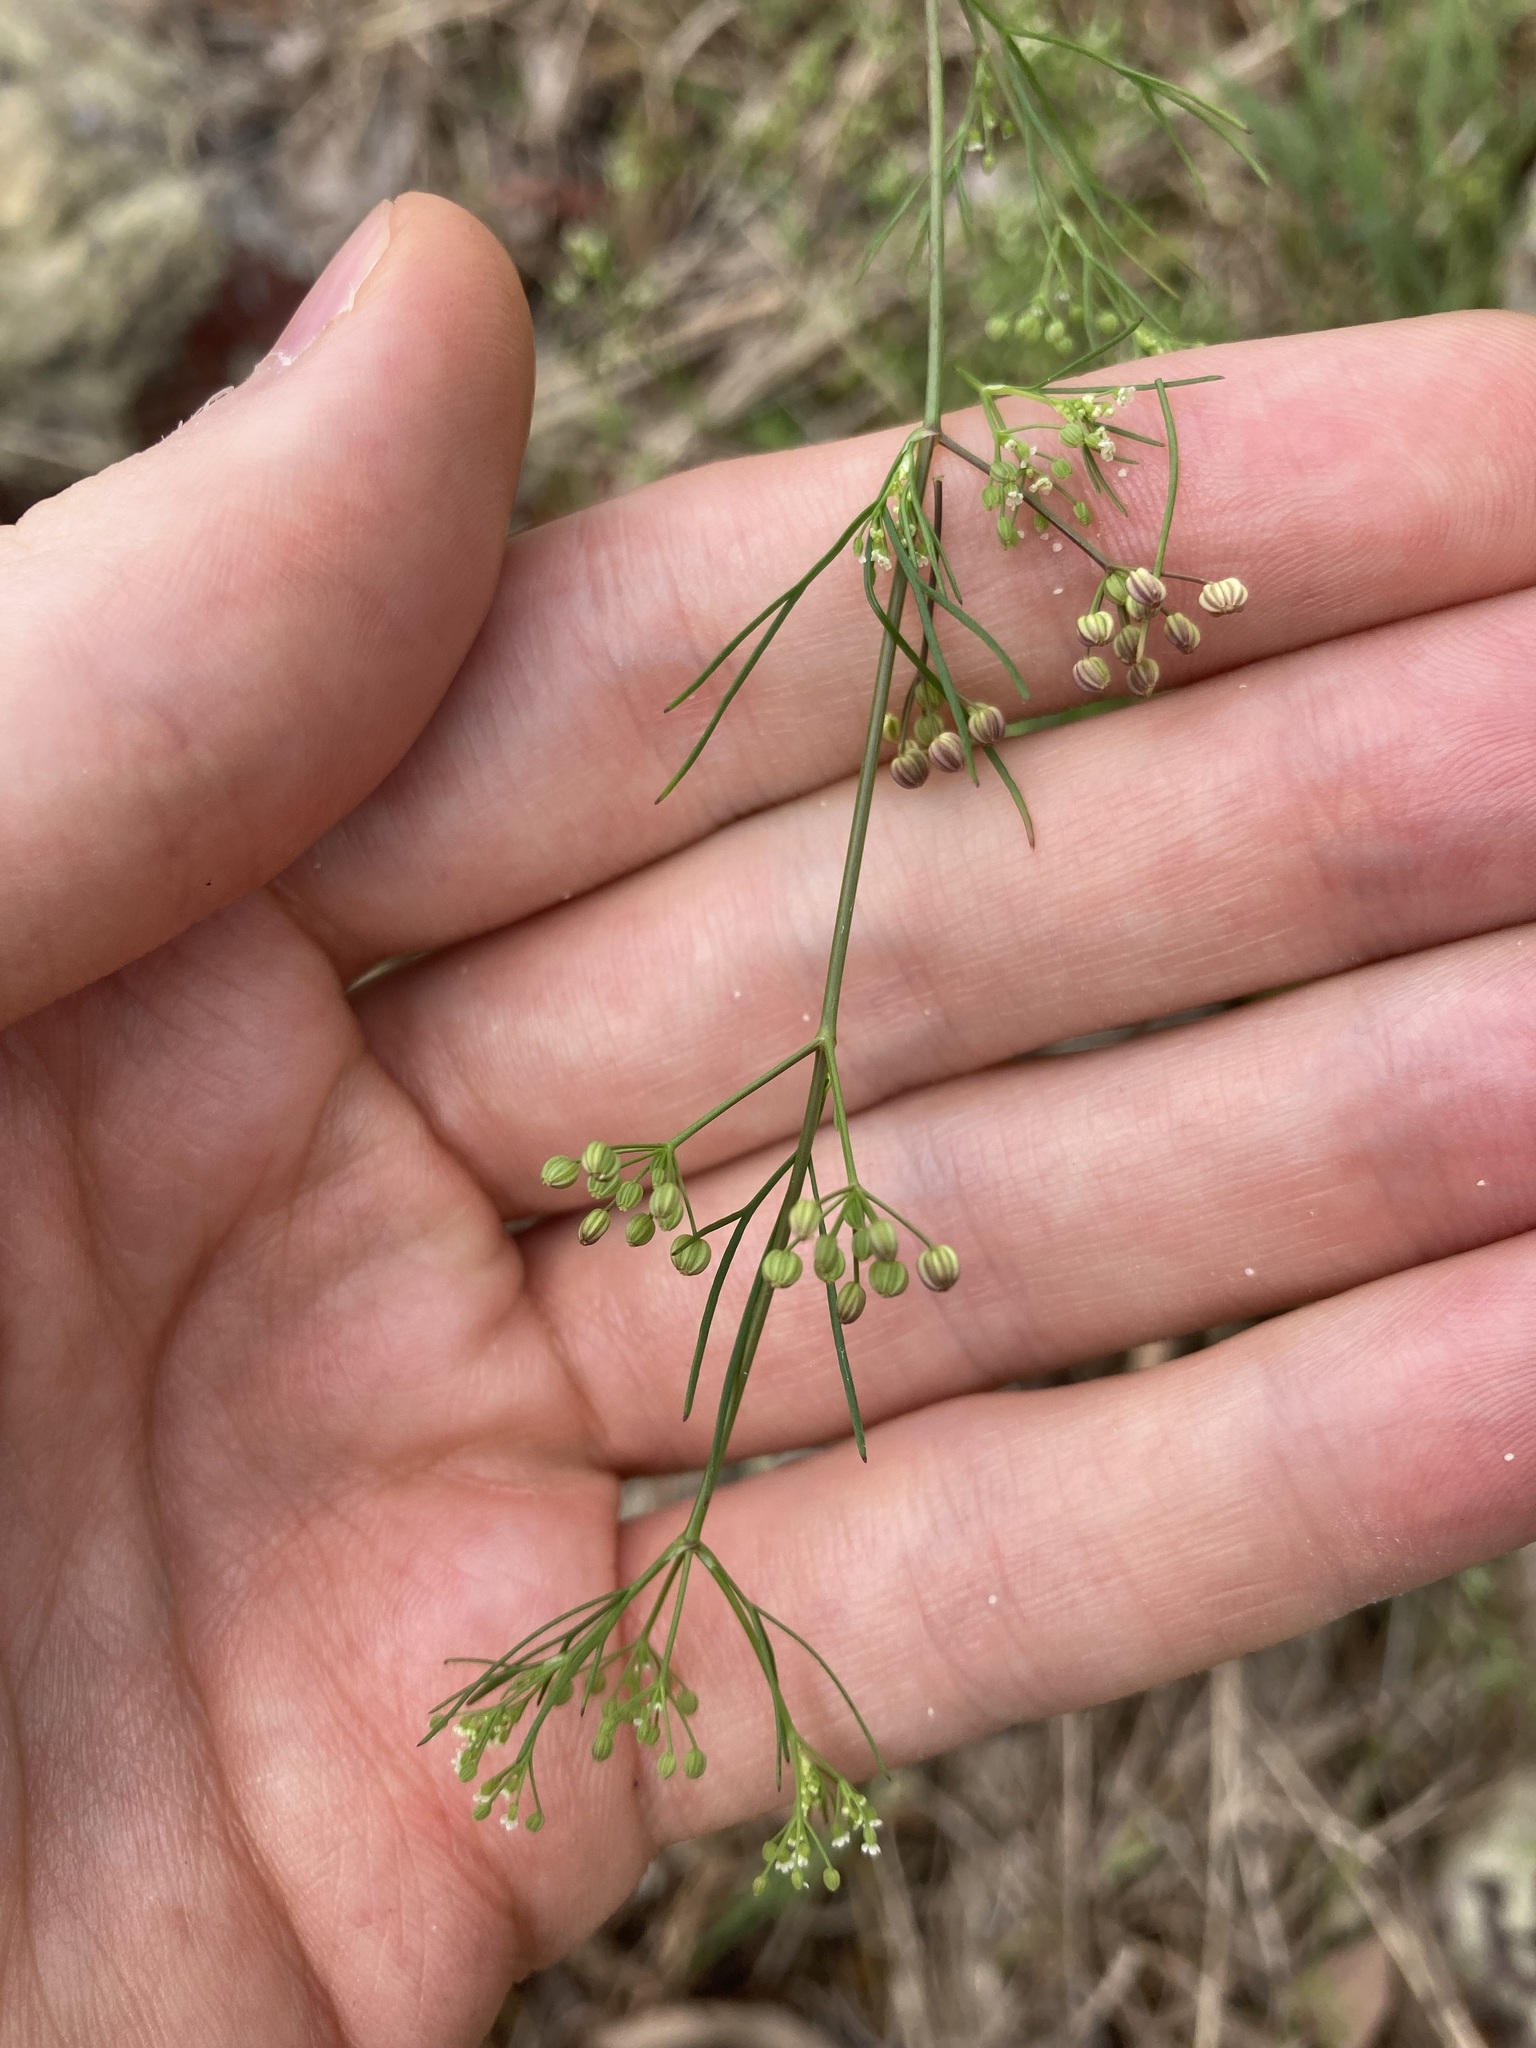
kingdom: Plantae
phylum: Tracheophyta
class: Magnoliopsida
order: Apiales
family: Apiaceae
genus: Cyclospermum
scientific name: Cyclospermum leptophyllum
